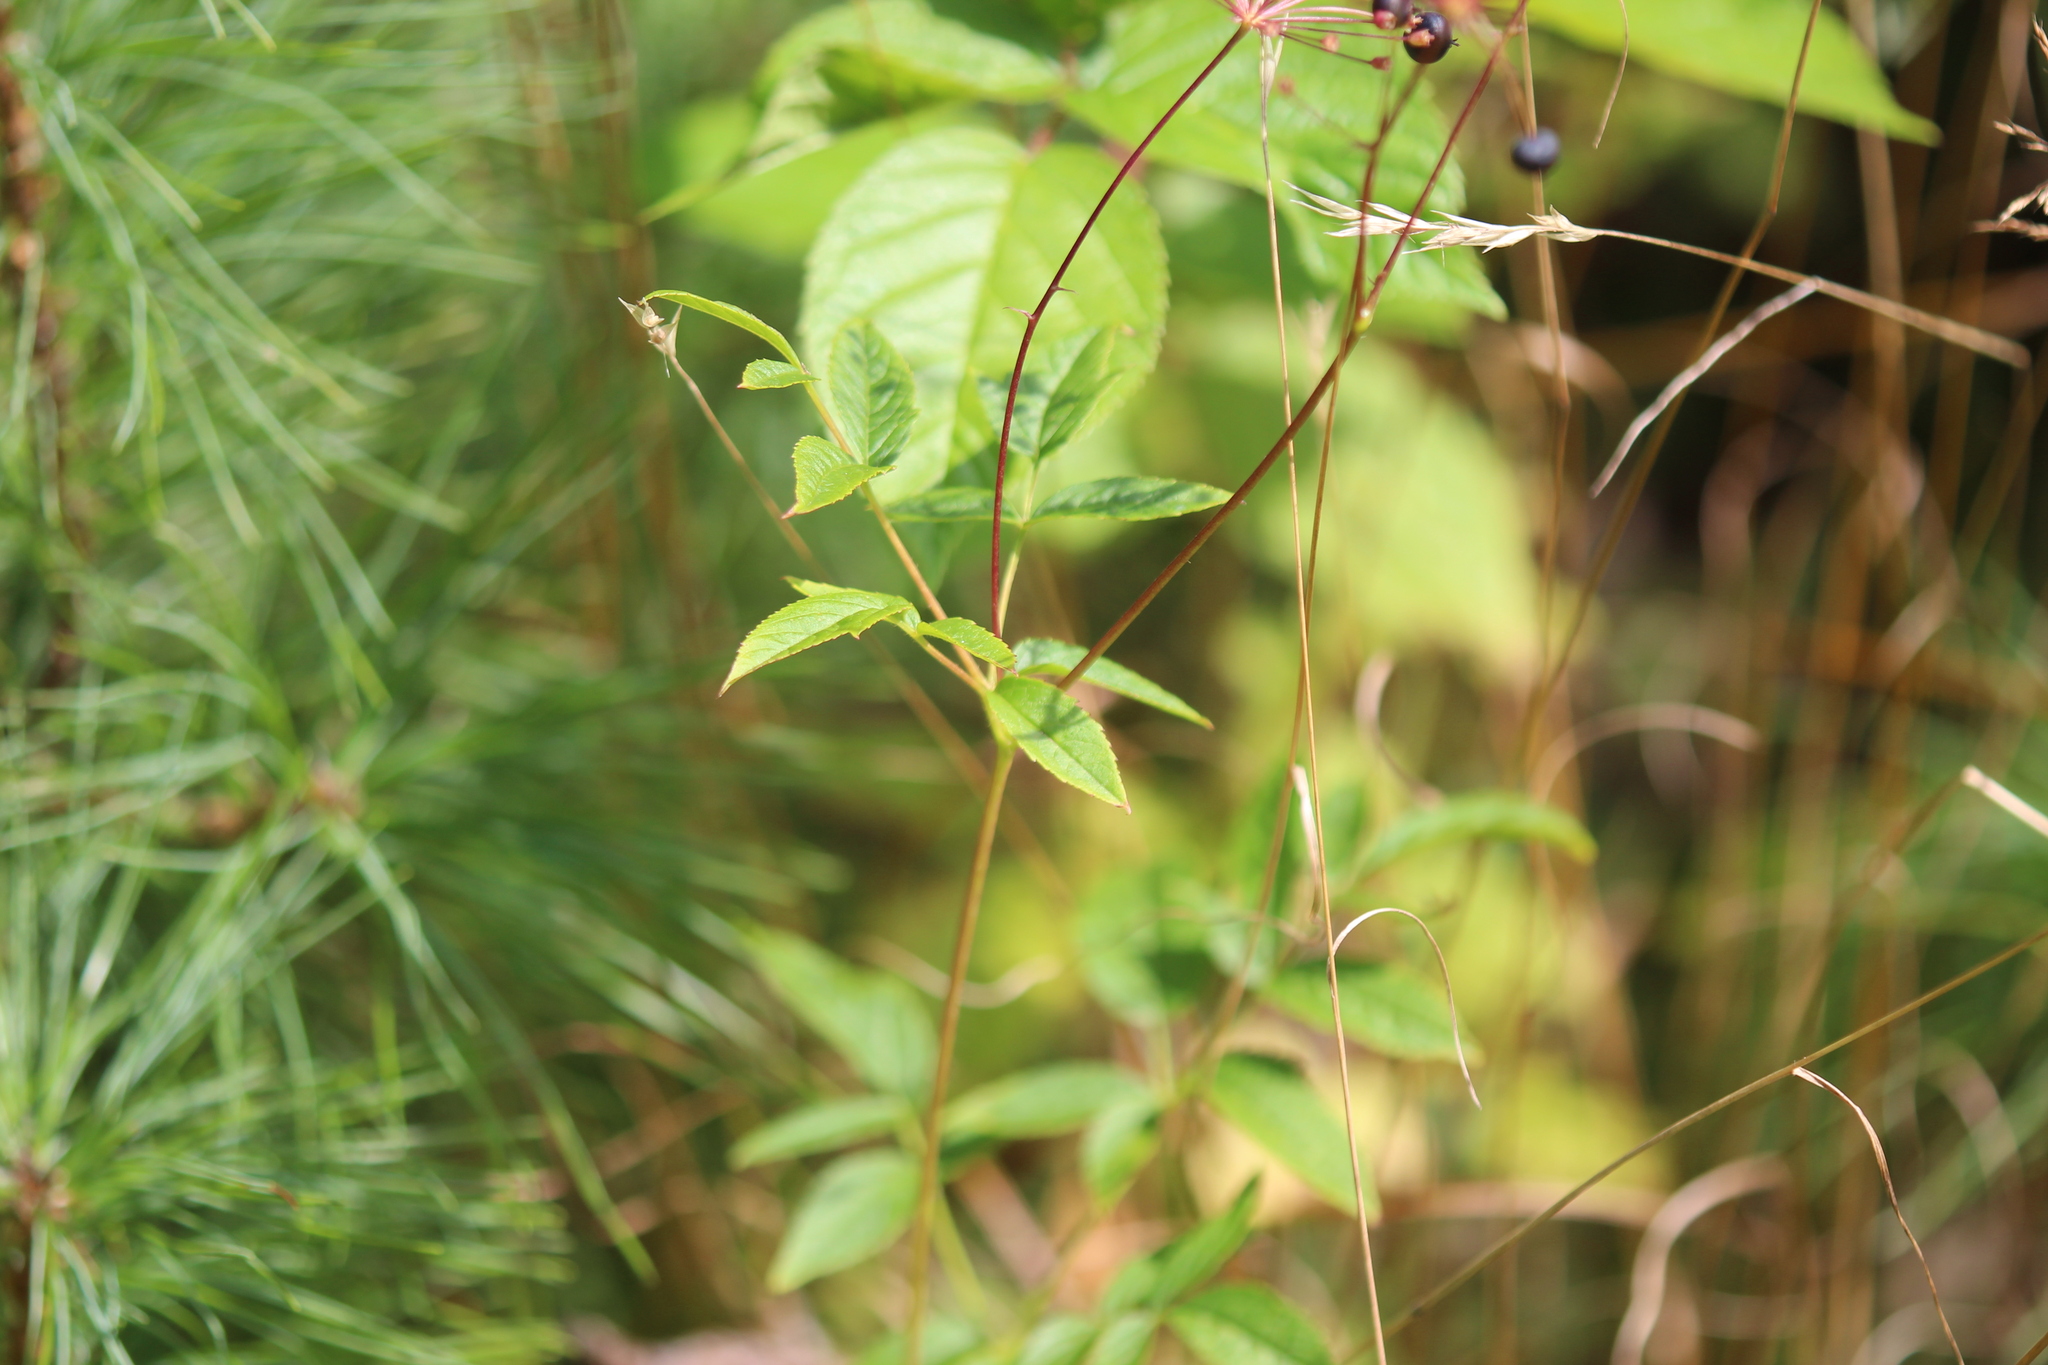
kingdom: Plantae
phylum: Tracheophyta
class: Magnoliopsida
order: Apiales
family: Araliaceae
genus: Aralia
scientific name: Aralia hispida
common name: Bristly sarsaparilla
